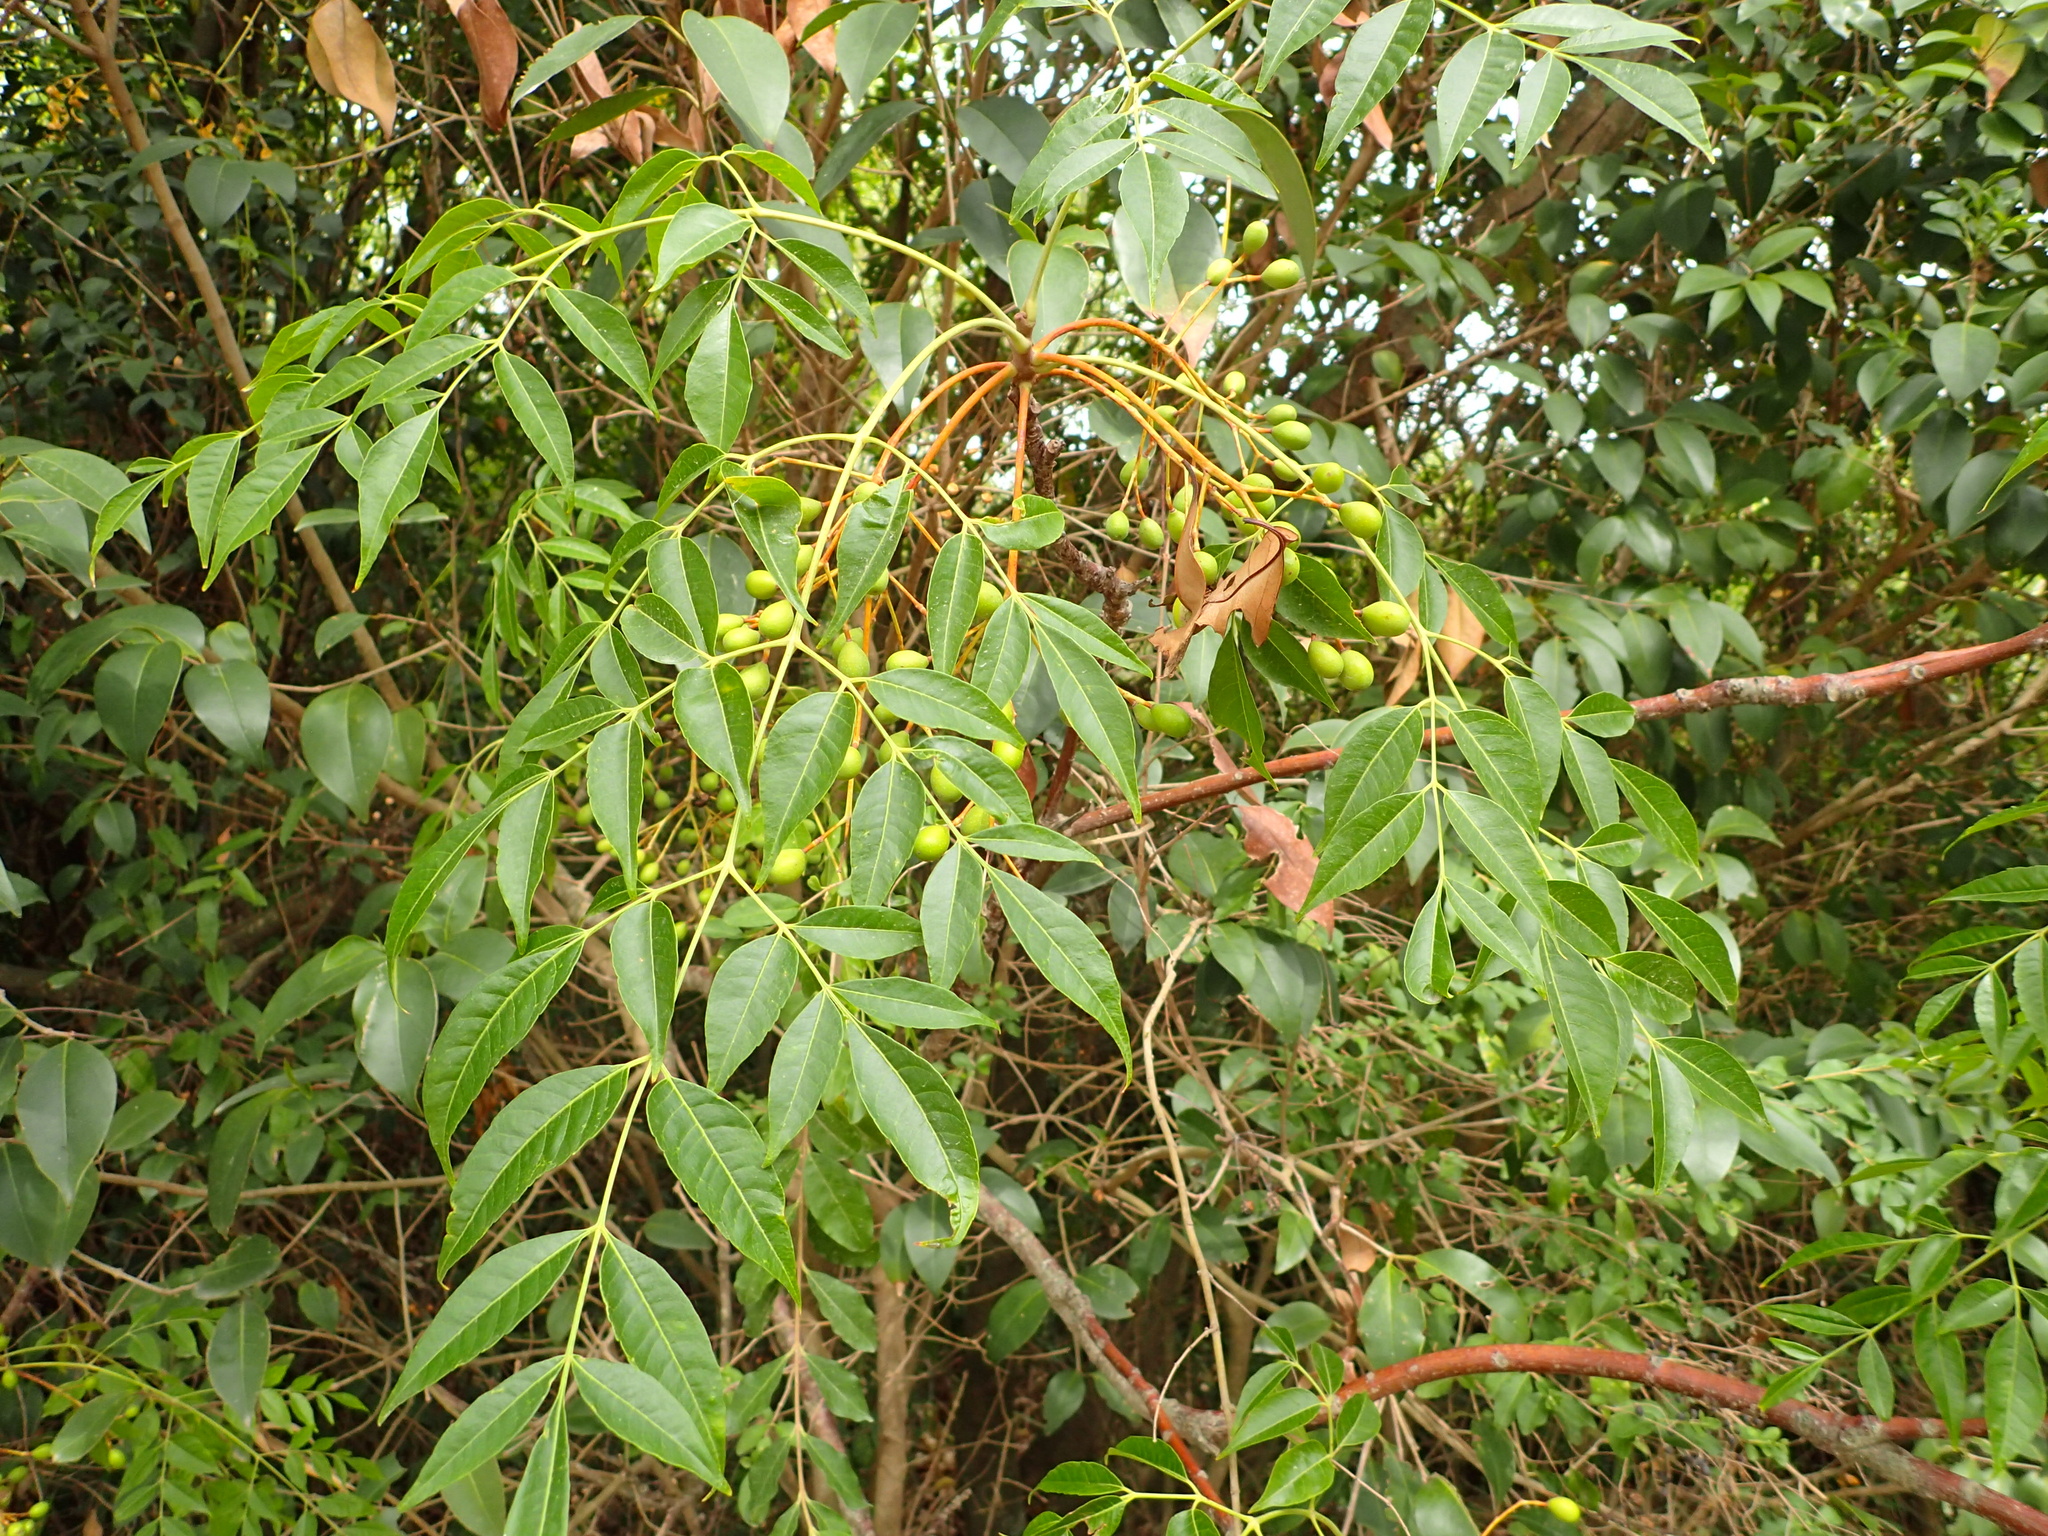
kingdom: Plantae
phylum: Tracheophyta
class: Magnoliopsida
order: Sapindales
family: Meliaceae
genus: Melia
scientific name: Melia azedarach
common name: Chinaberrytree
